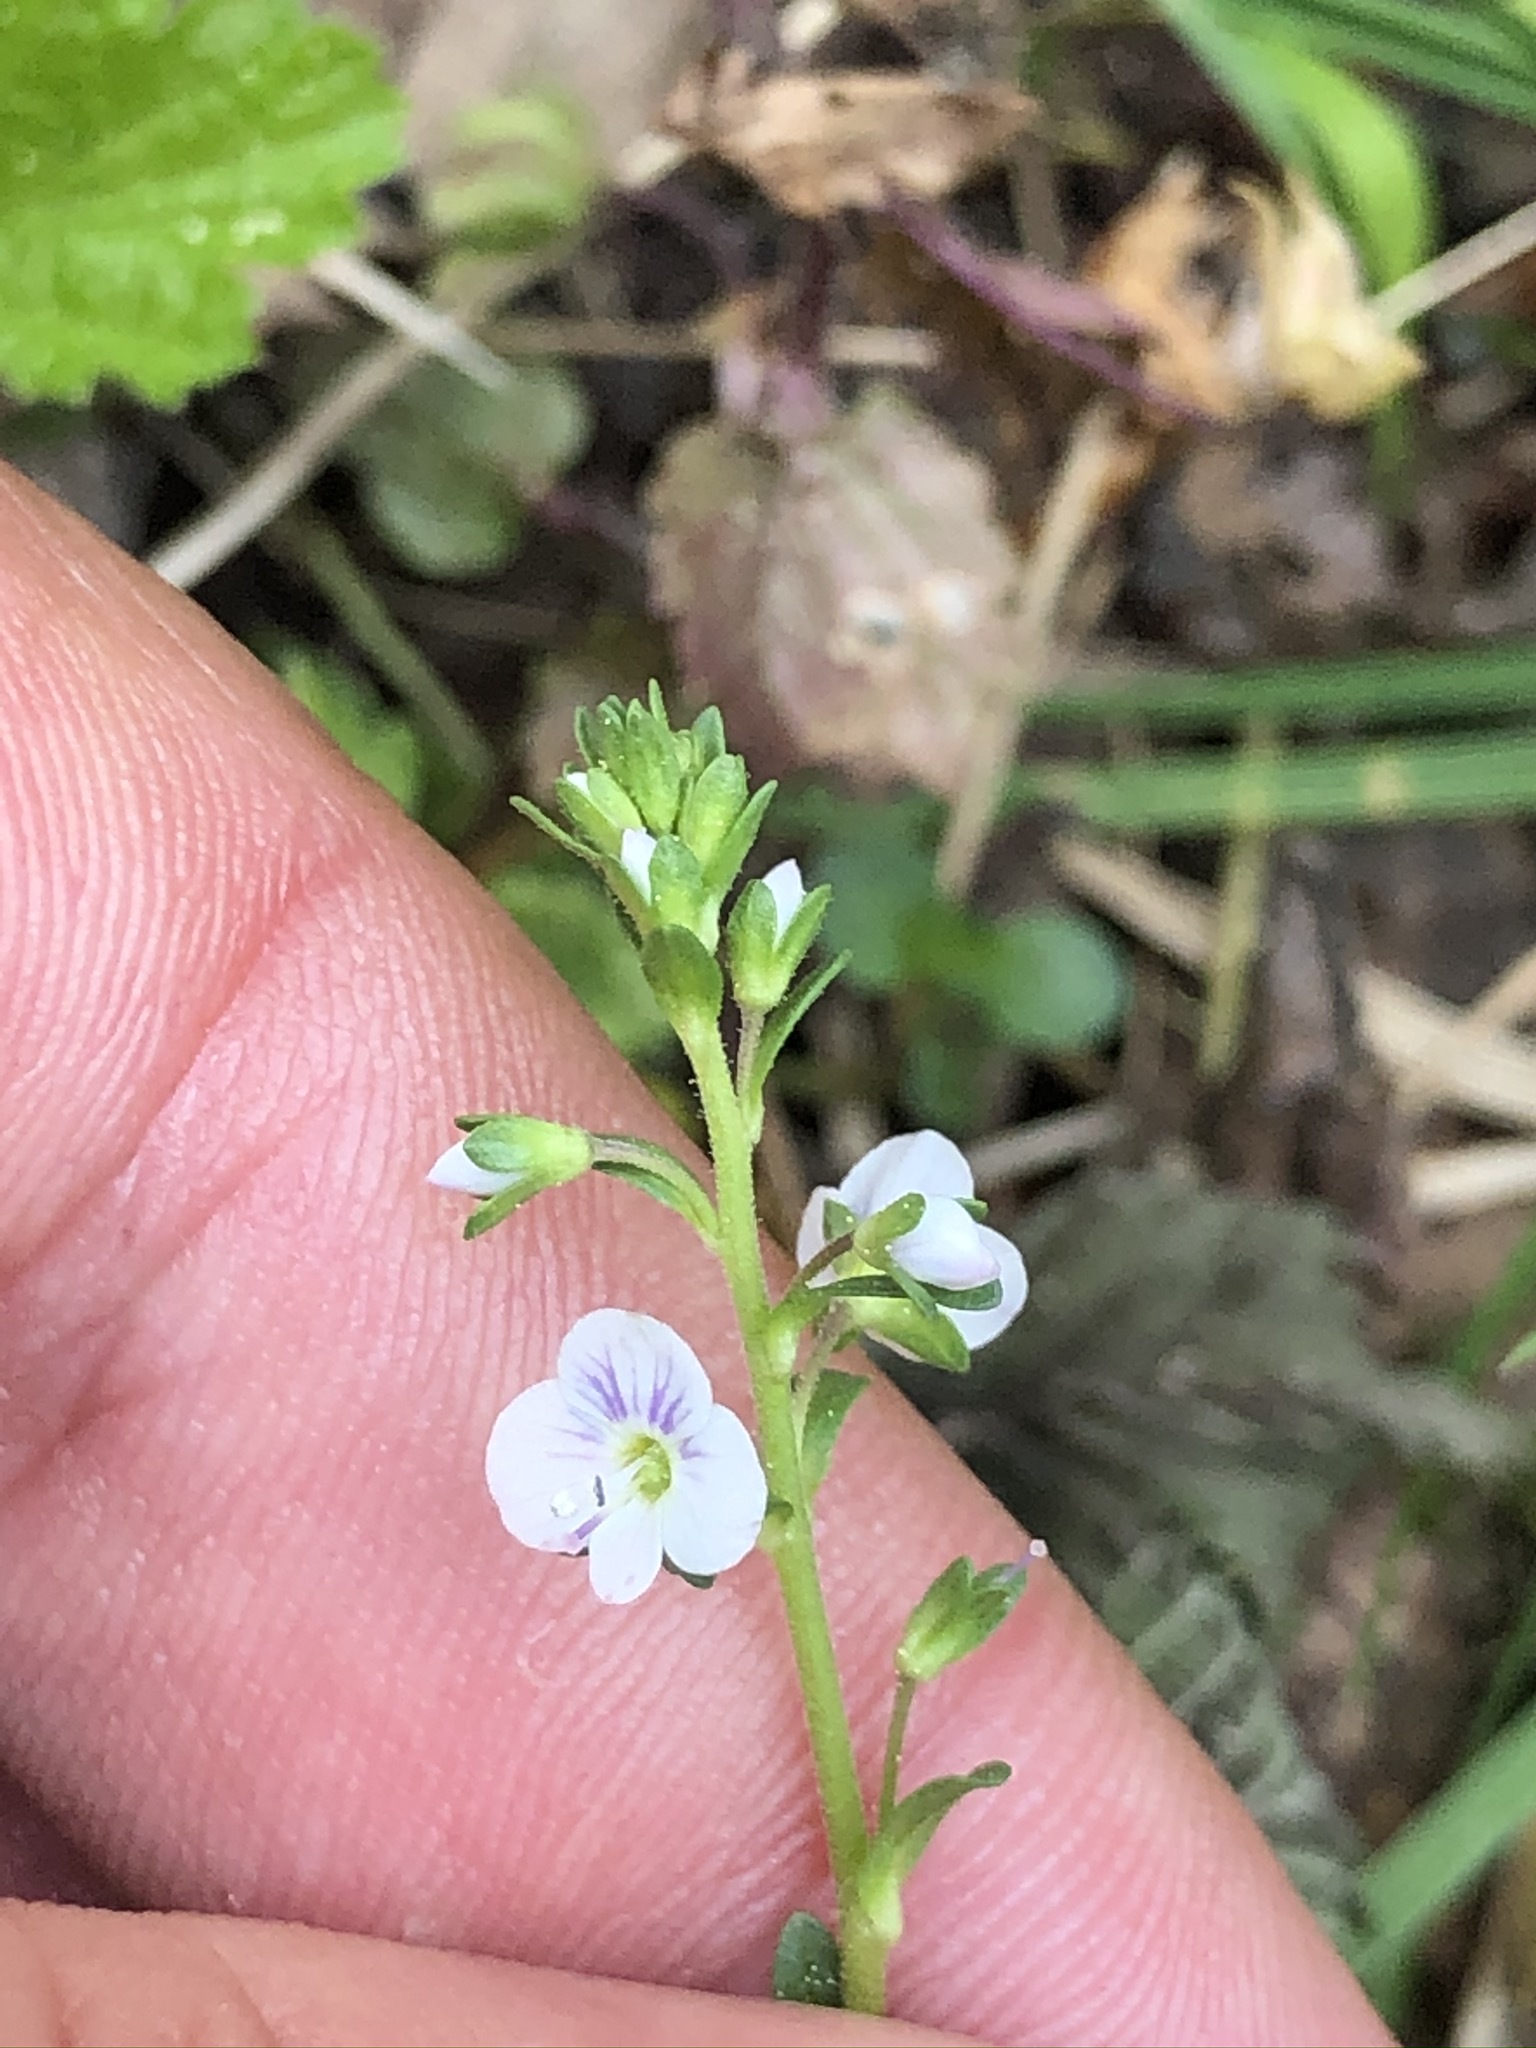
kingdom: Plantae
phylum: Tracheophyta
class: Magnoliopsida
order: Lamiales
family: Plantaginaceae
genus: Veronica
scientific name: Veronica serpyllifolia
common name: Thyme-leaved speedwell
